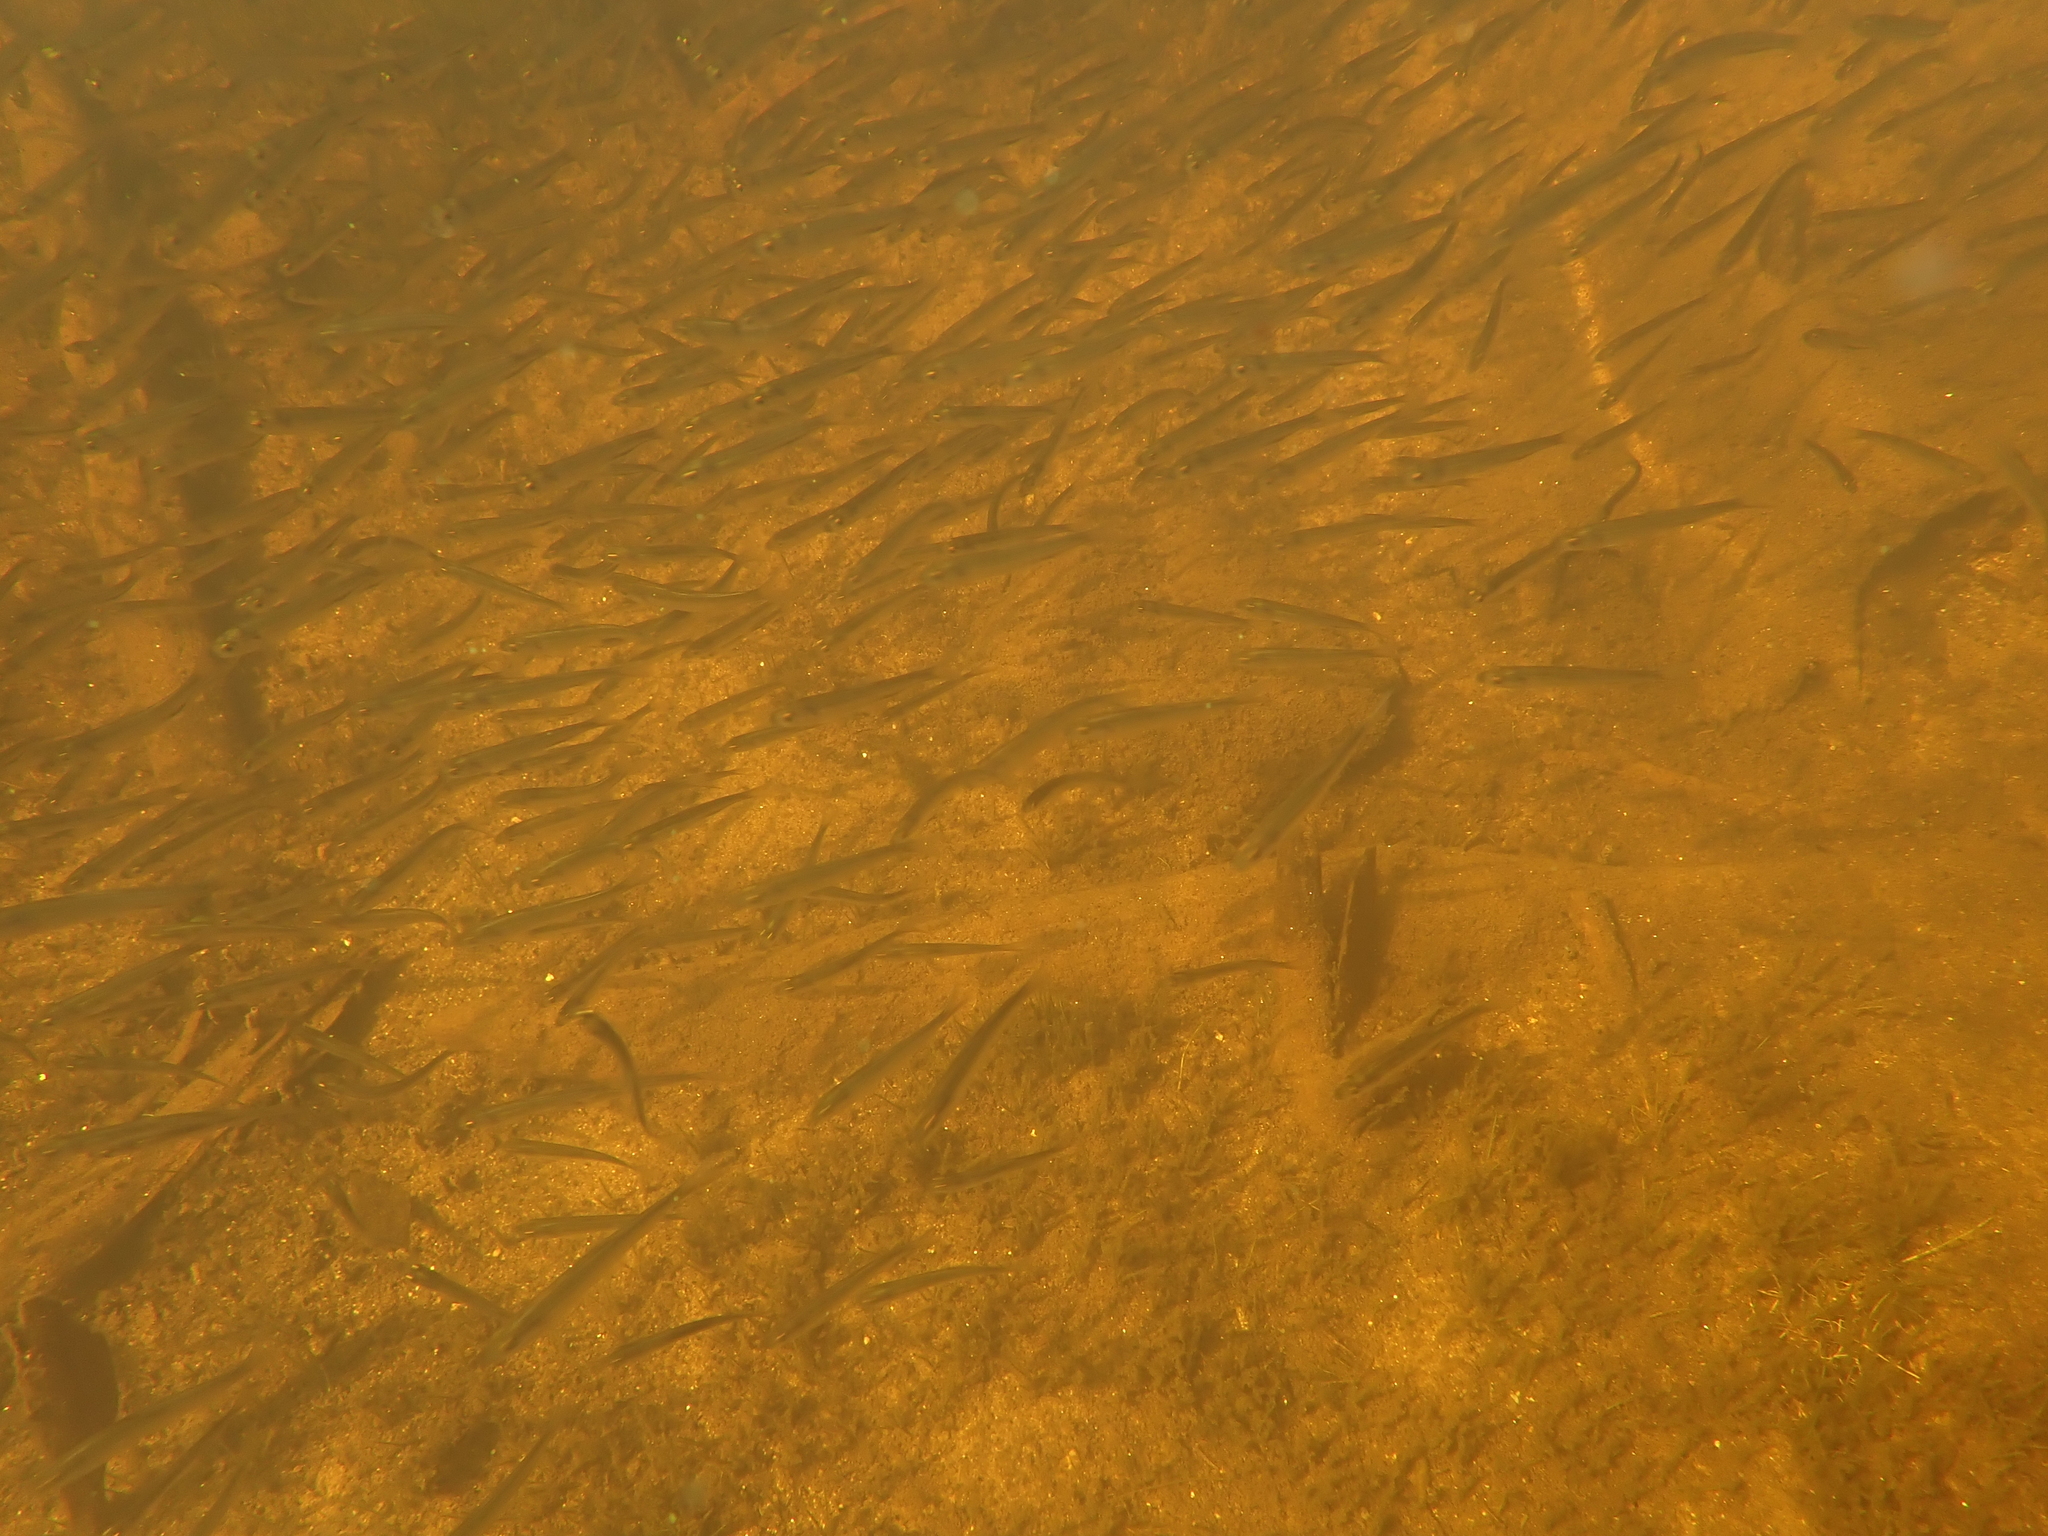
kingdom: Animalia
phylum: Chordata
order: Osmeriformes
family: Osmeridae
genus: Osmerus
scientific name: Osmerus mordax
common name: Rainbow smelt
